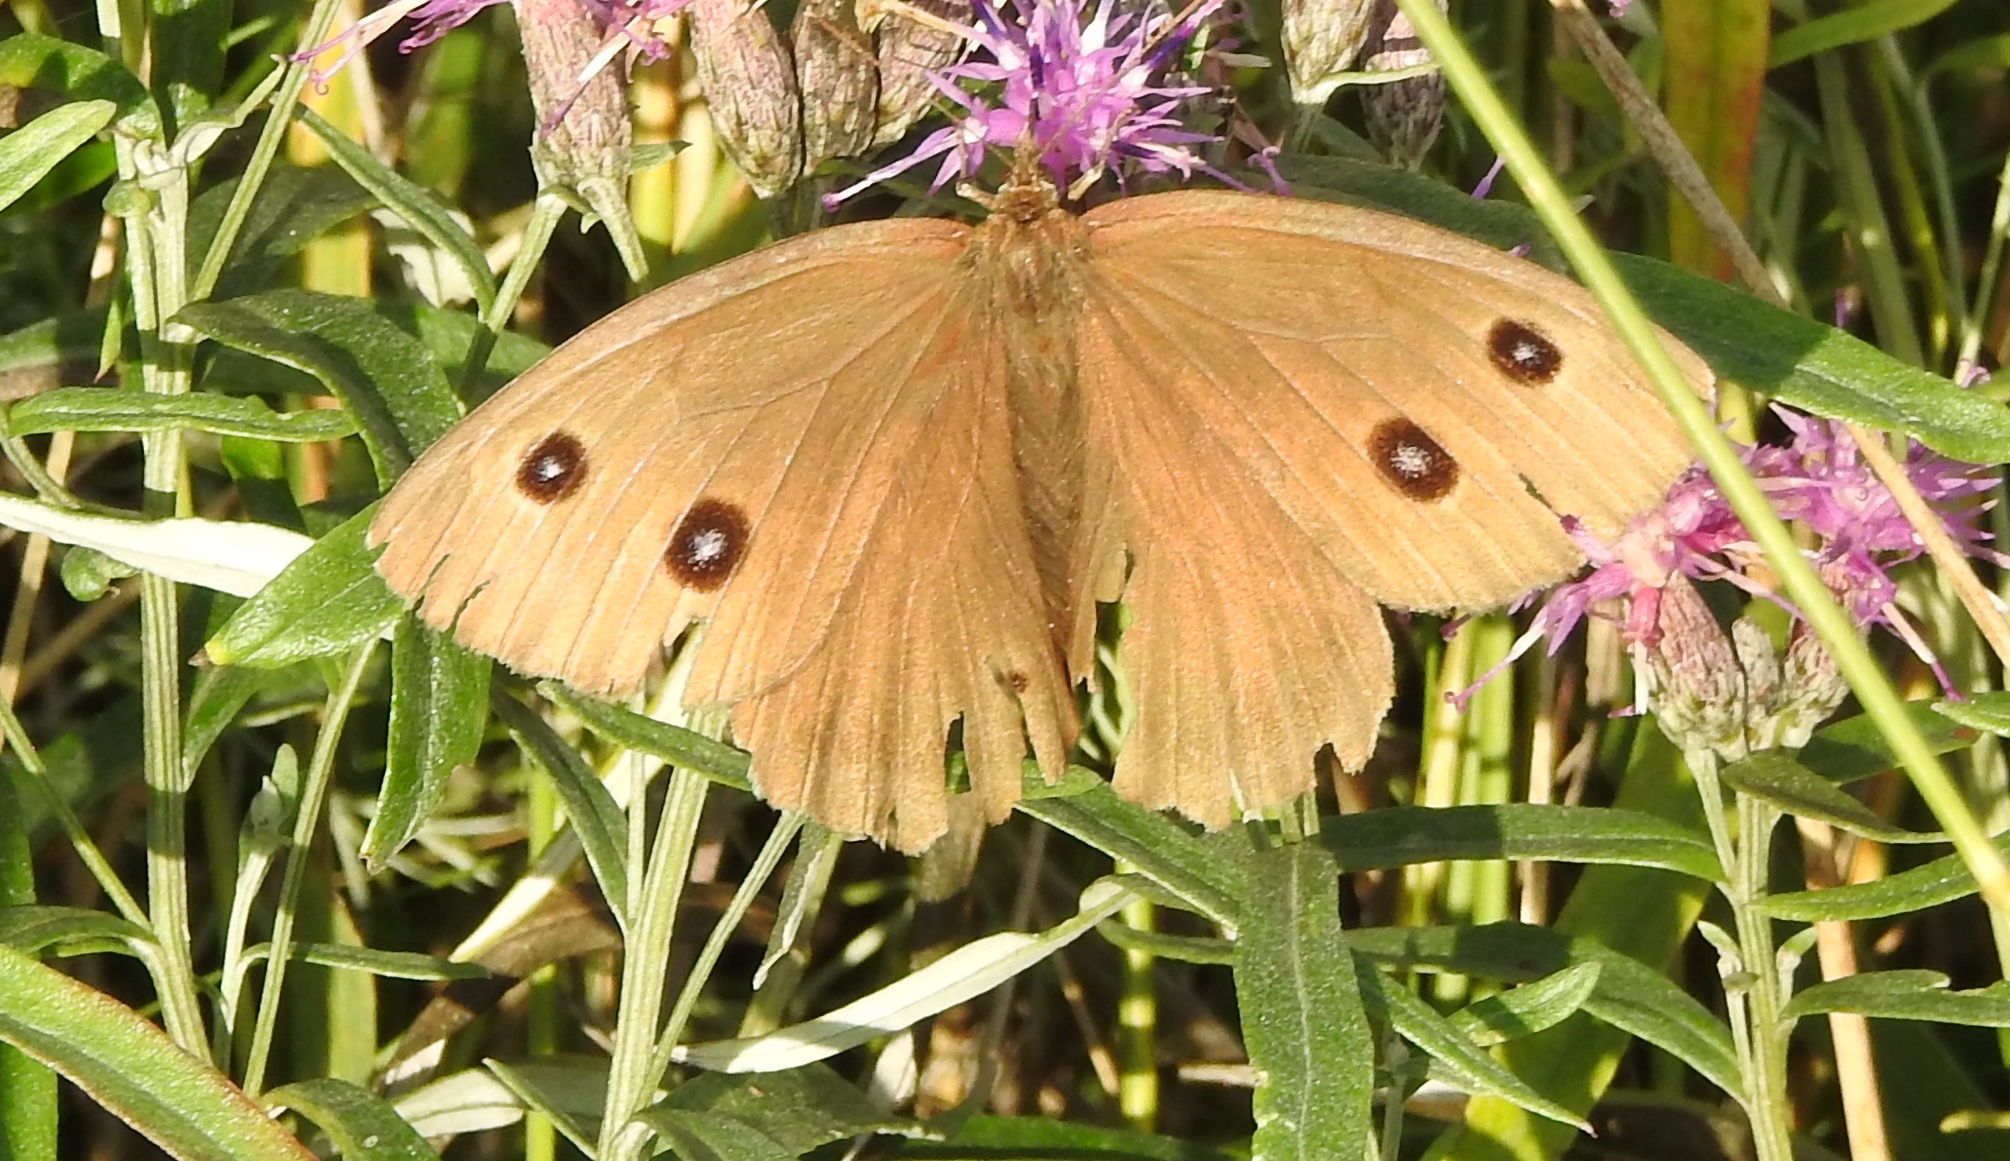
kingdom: Animalia
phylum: Arthropoda
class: Insecta
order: Lepidoptera
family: Nymphalidae
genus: Minois
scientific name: Minois dryas
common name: Dryad
